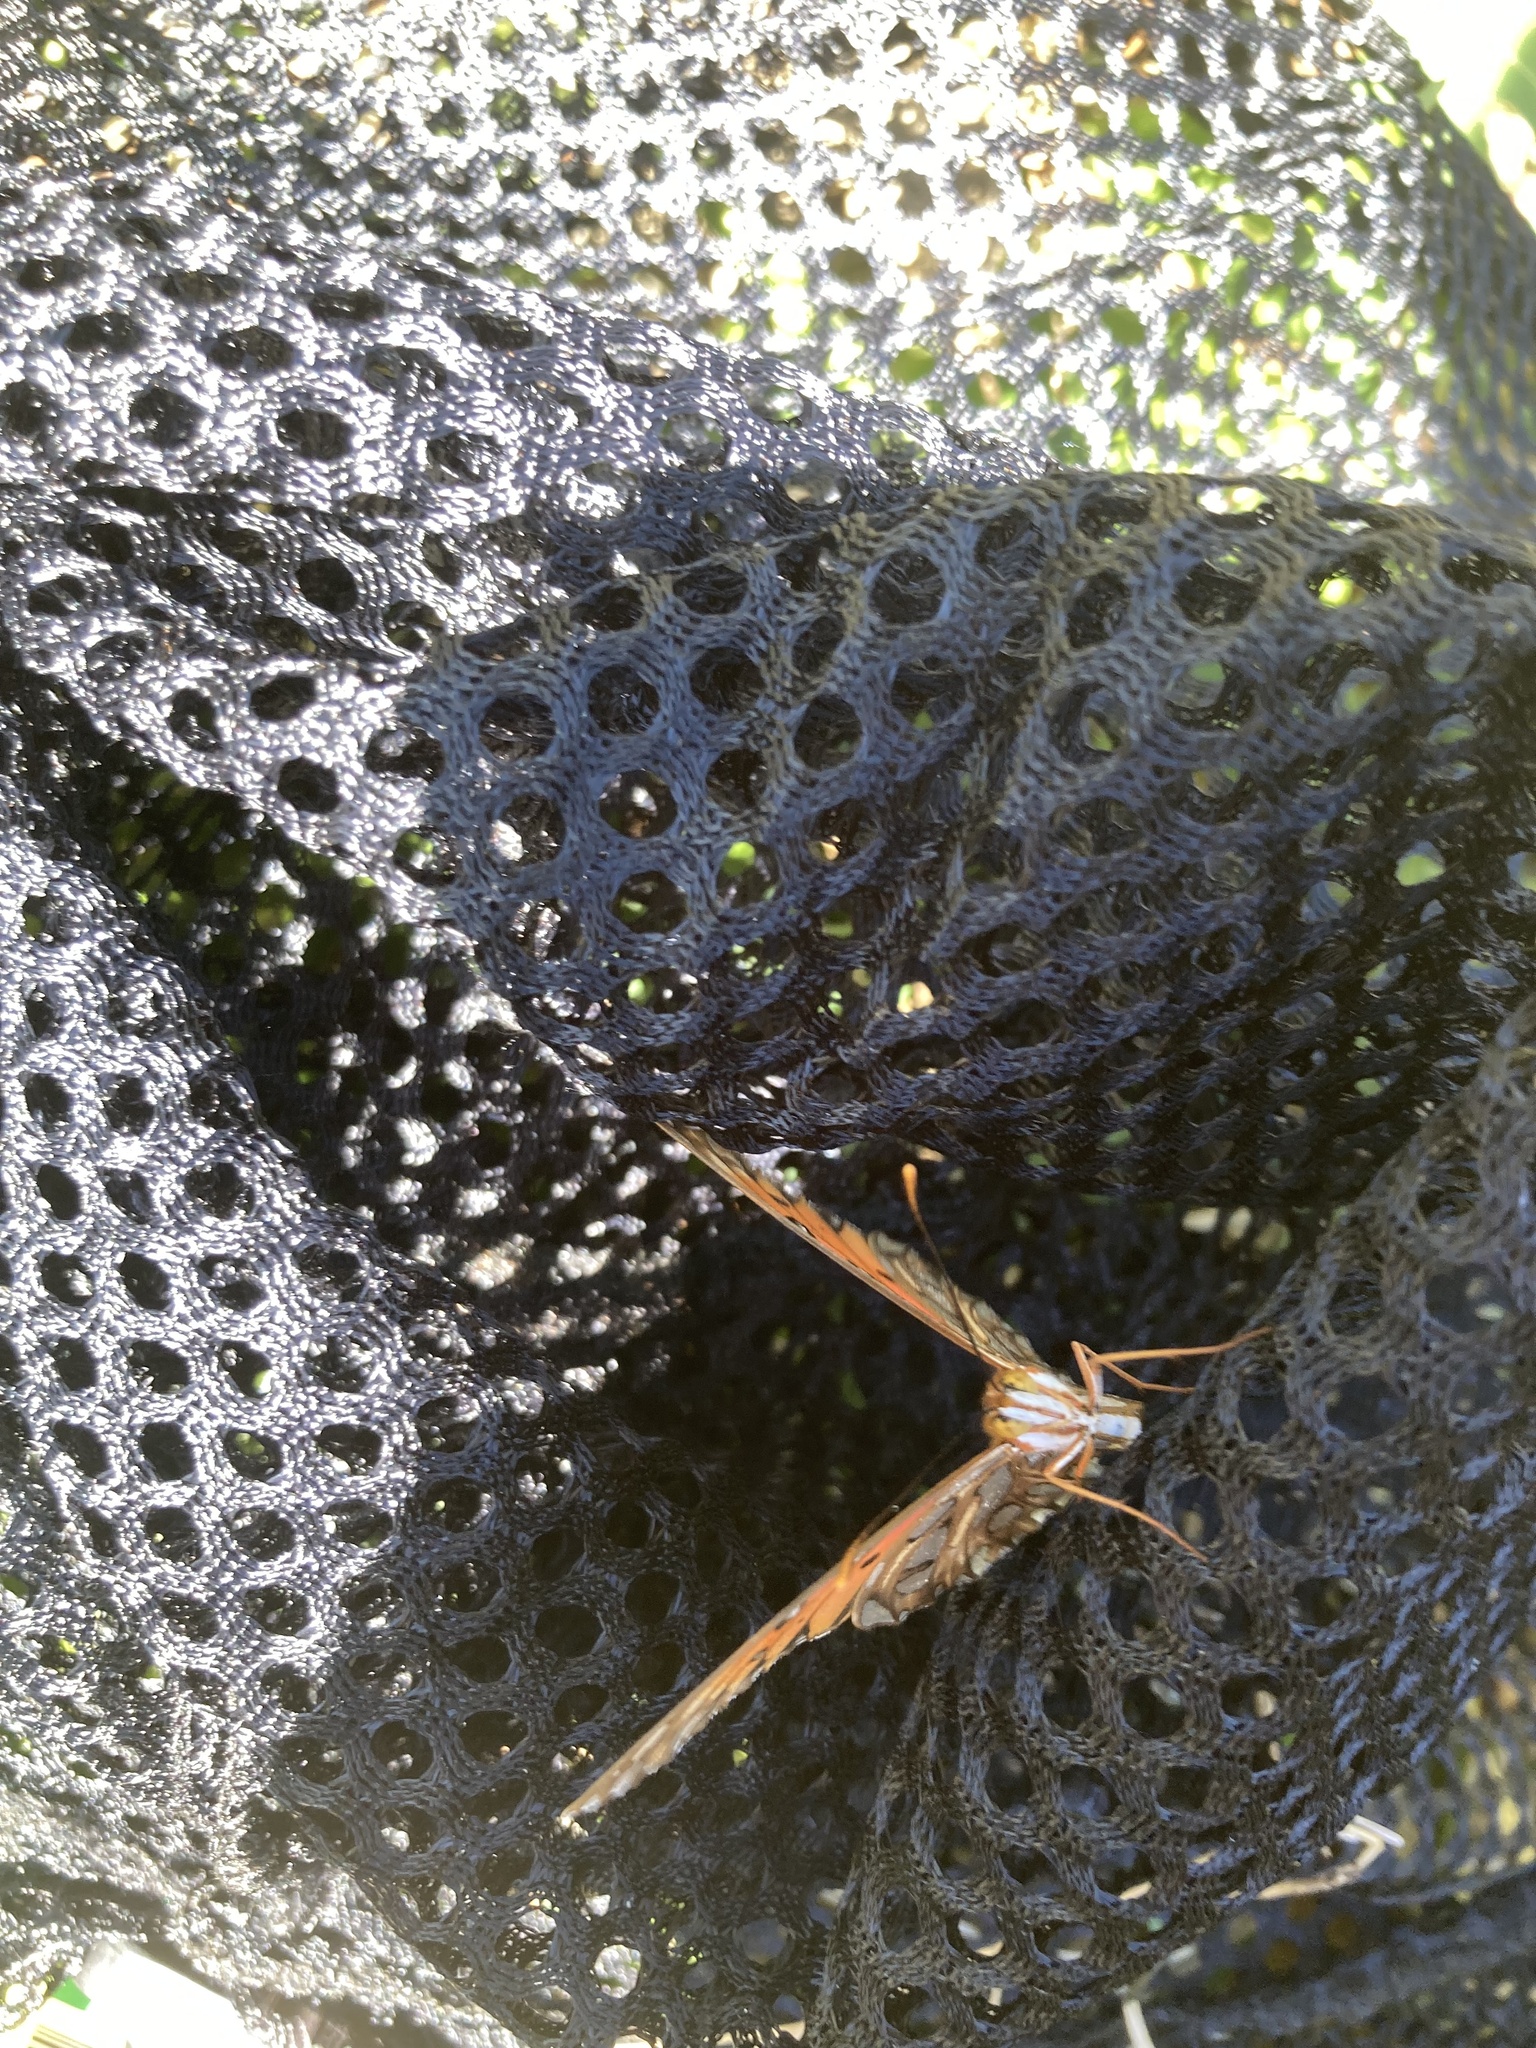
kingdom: Animalia
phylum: Arthropoda
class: Insecta
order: Lepidoptera
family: Nymphalidae
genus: Dione
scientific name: Dione vanillae
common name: Gulf fritillary
